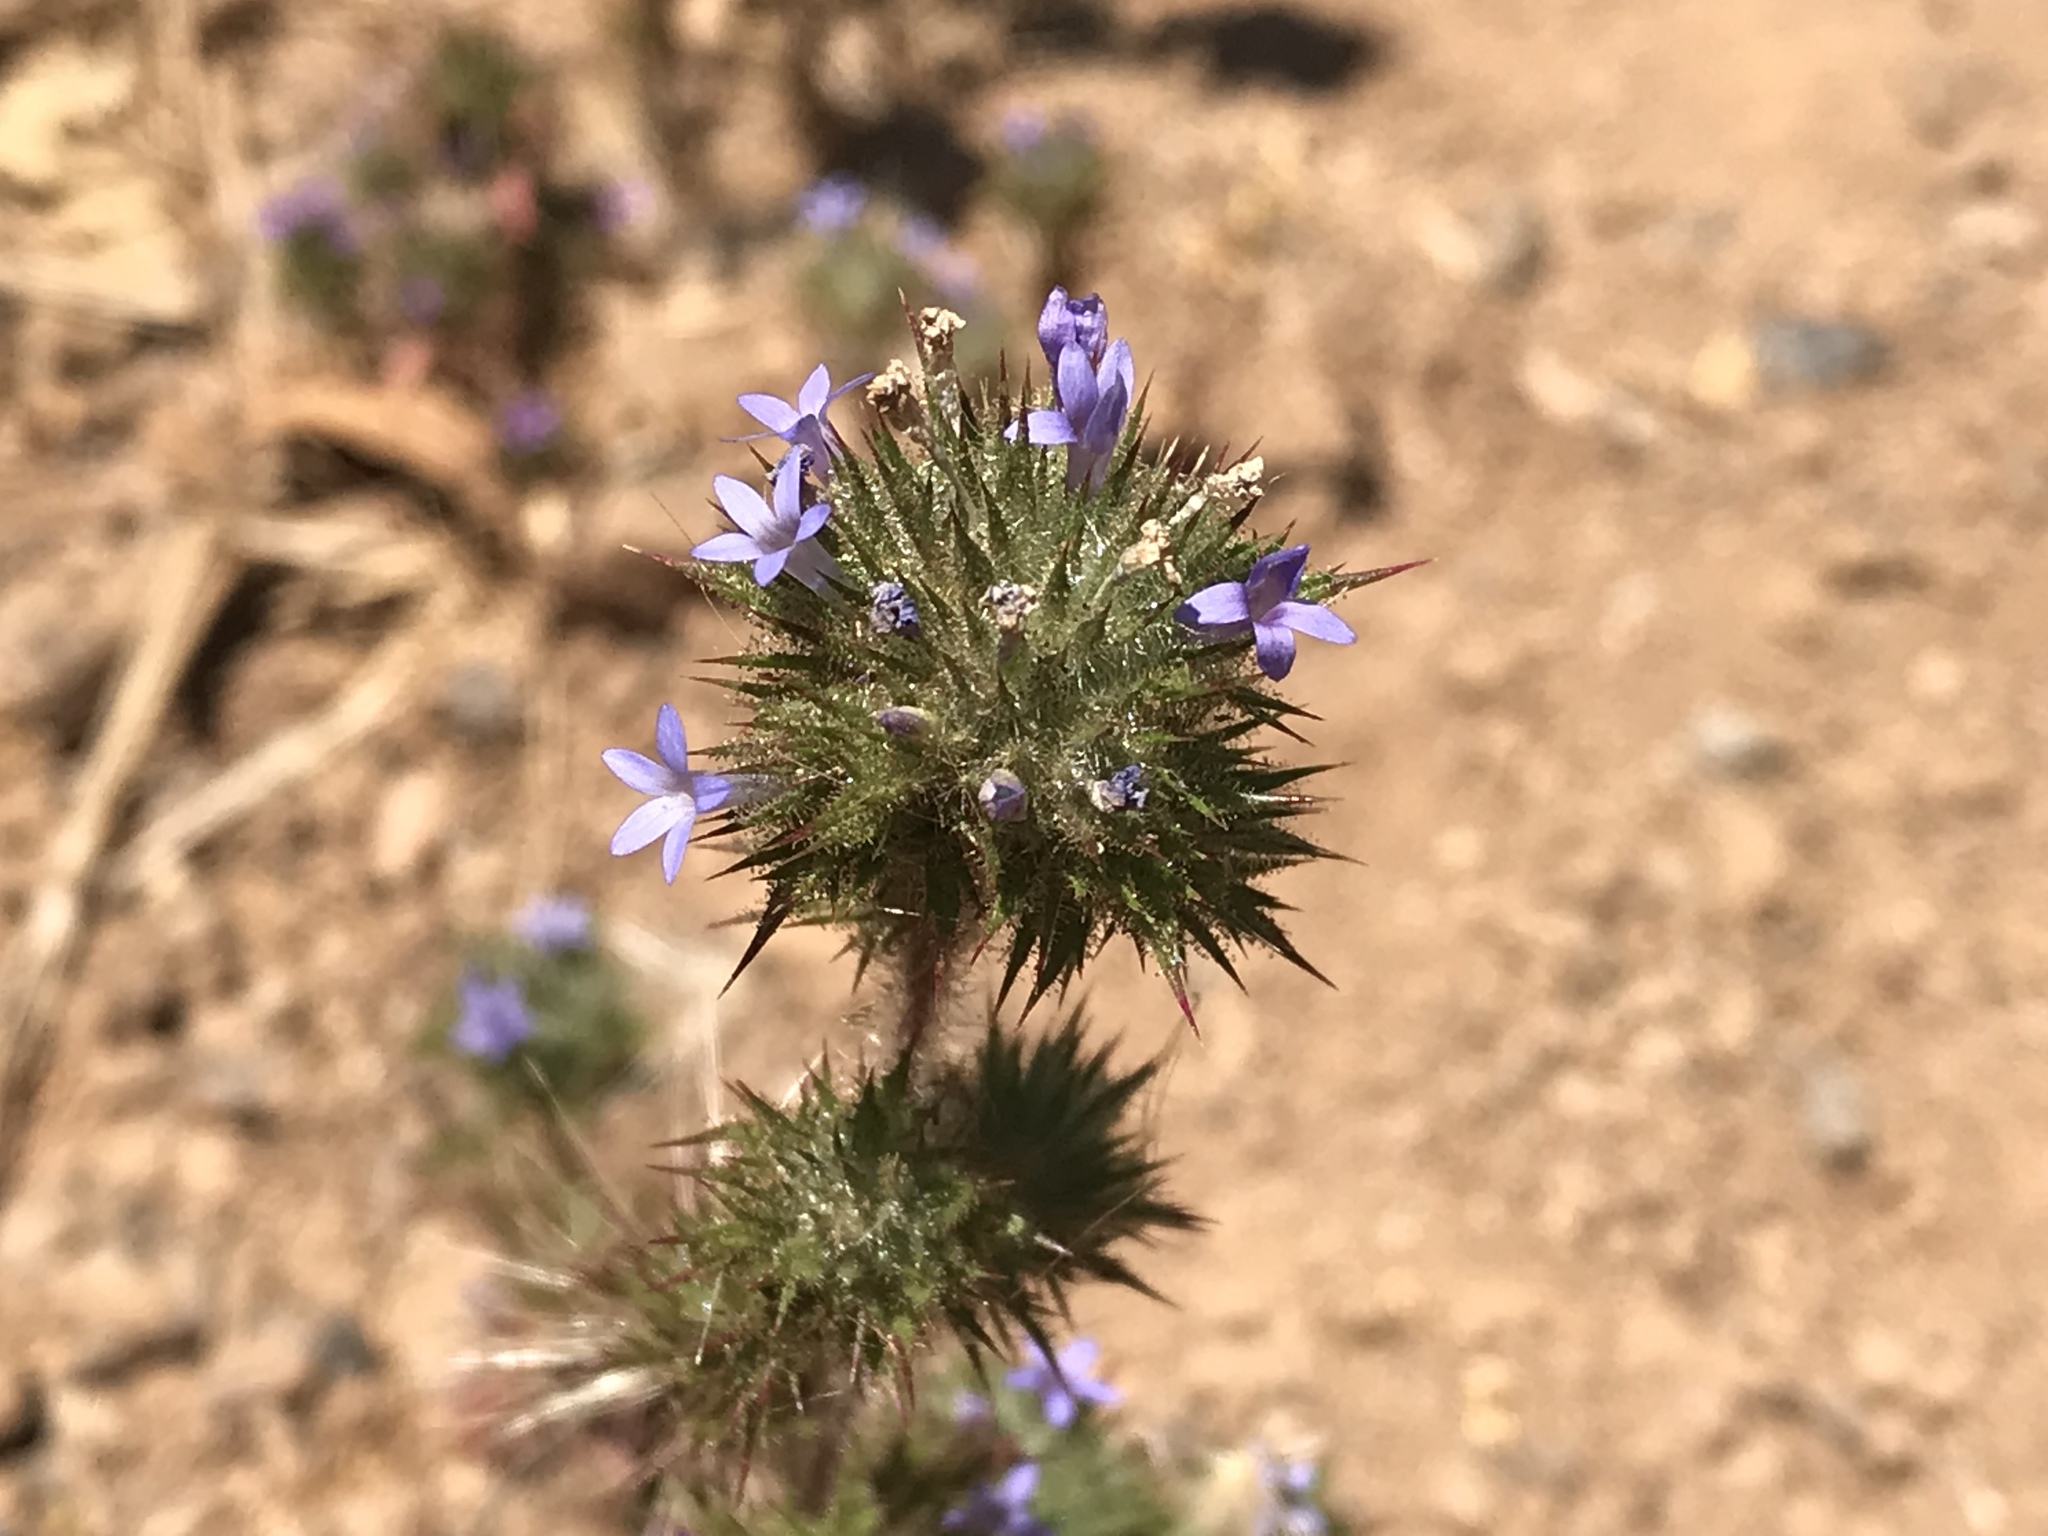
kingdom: Plantae
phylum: Tracheophyta
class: Magnoliopsida
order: Ericales
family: Polemoniaceae
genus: Navarretia
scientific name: Navarretia squarrosa
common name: Skunkweed
